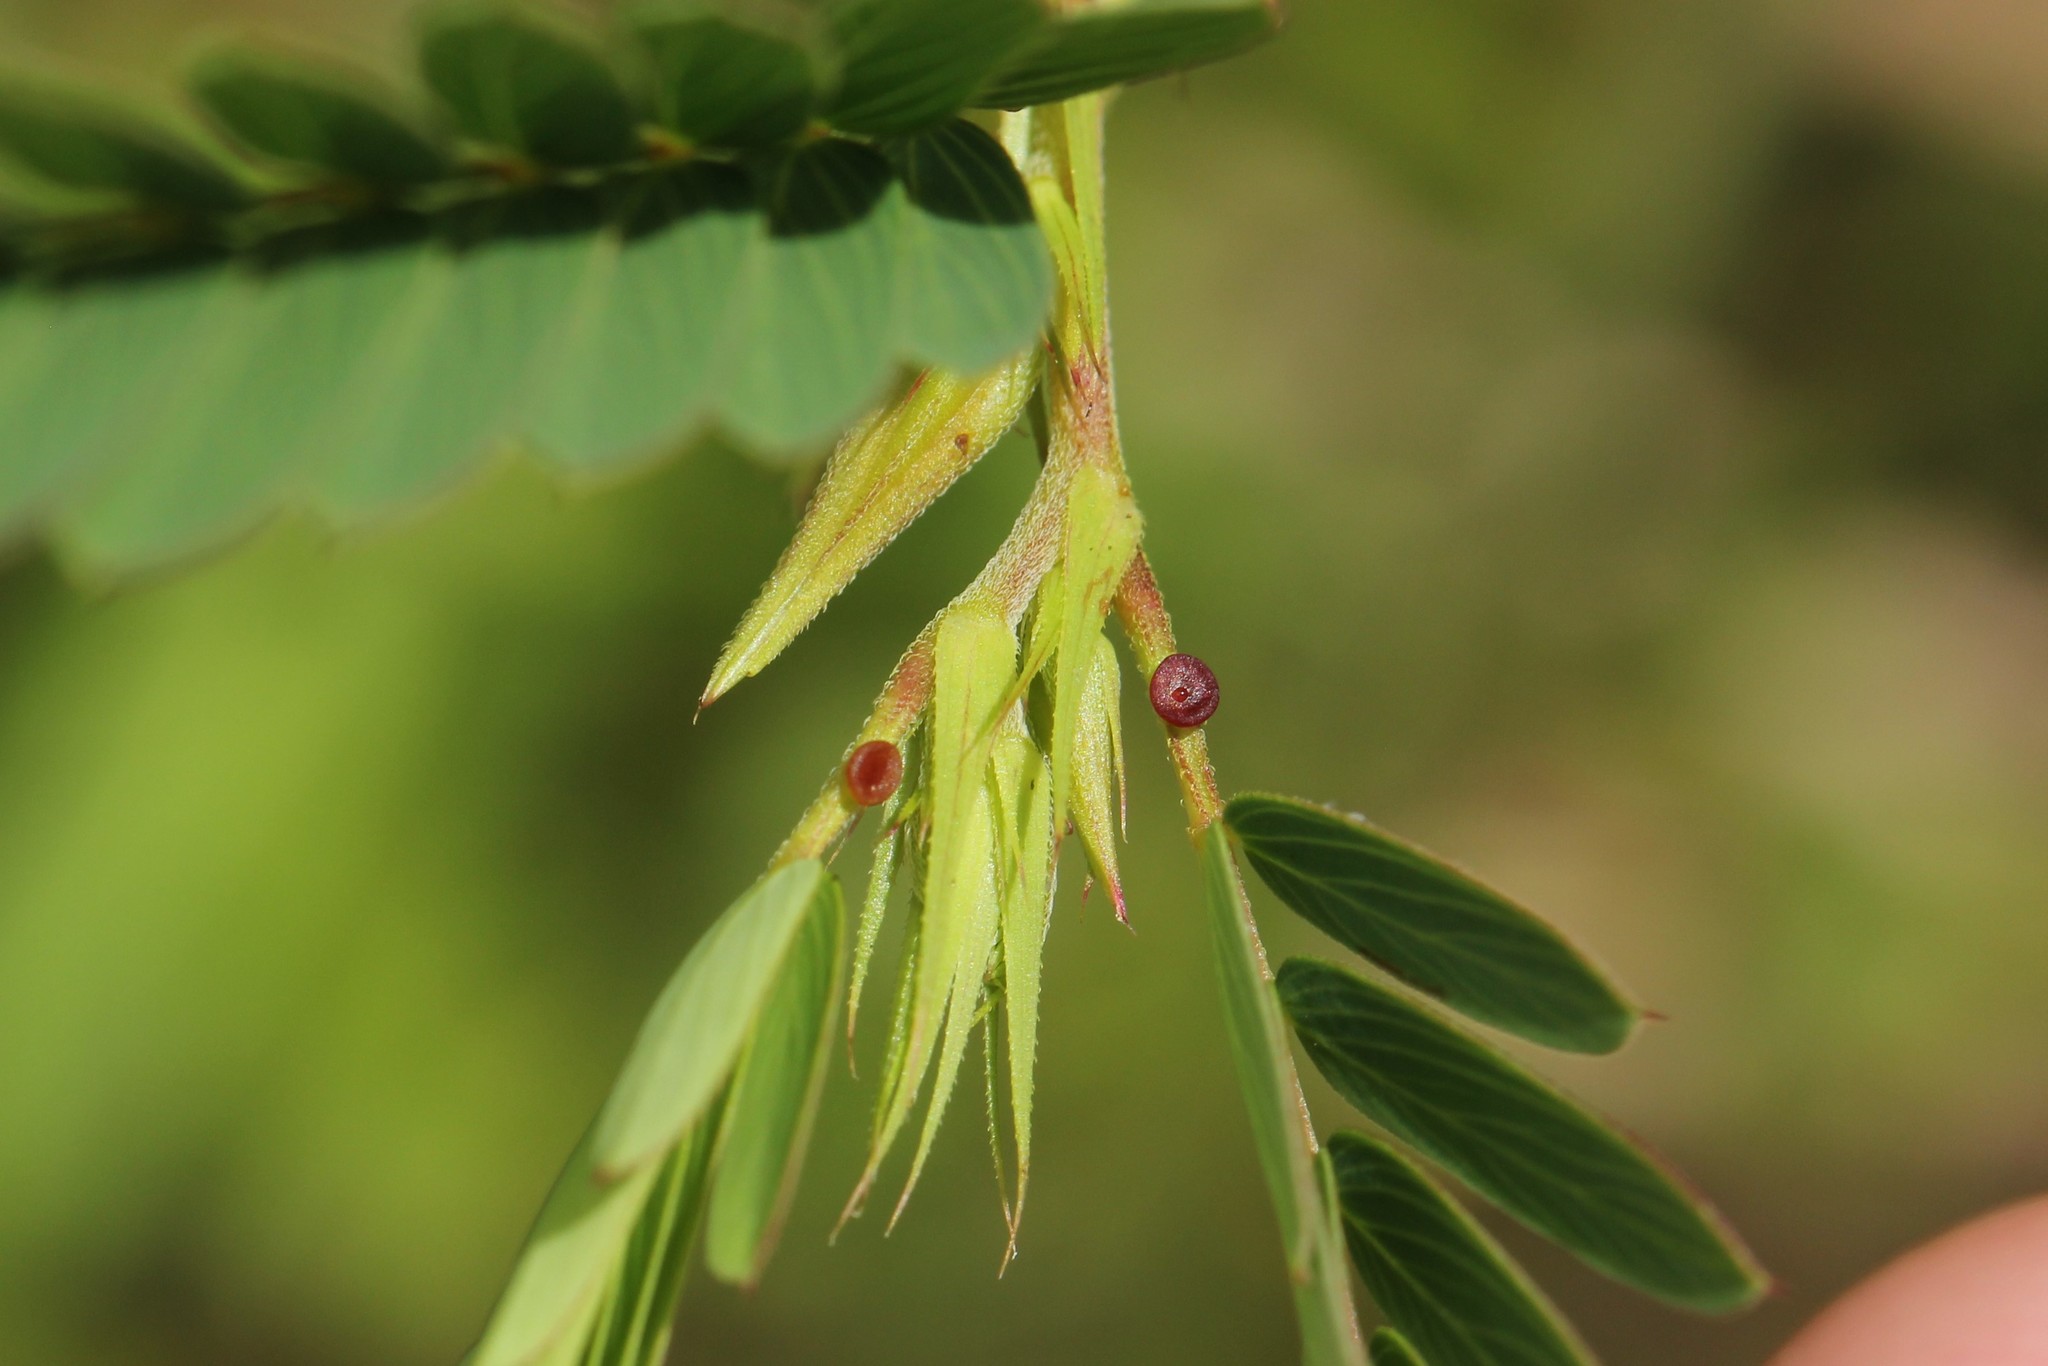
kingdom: Plantae
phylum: Tracheophyta
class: Magnoliopsida
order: Fabales
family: Fabaceae
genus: Chamaecrista
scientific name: Chamaecrista fasciculata
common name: Golden cassia
